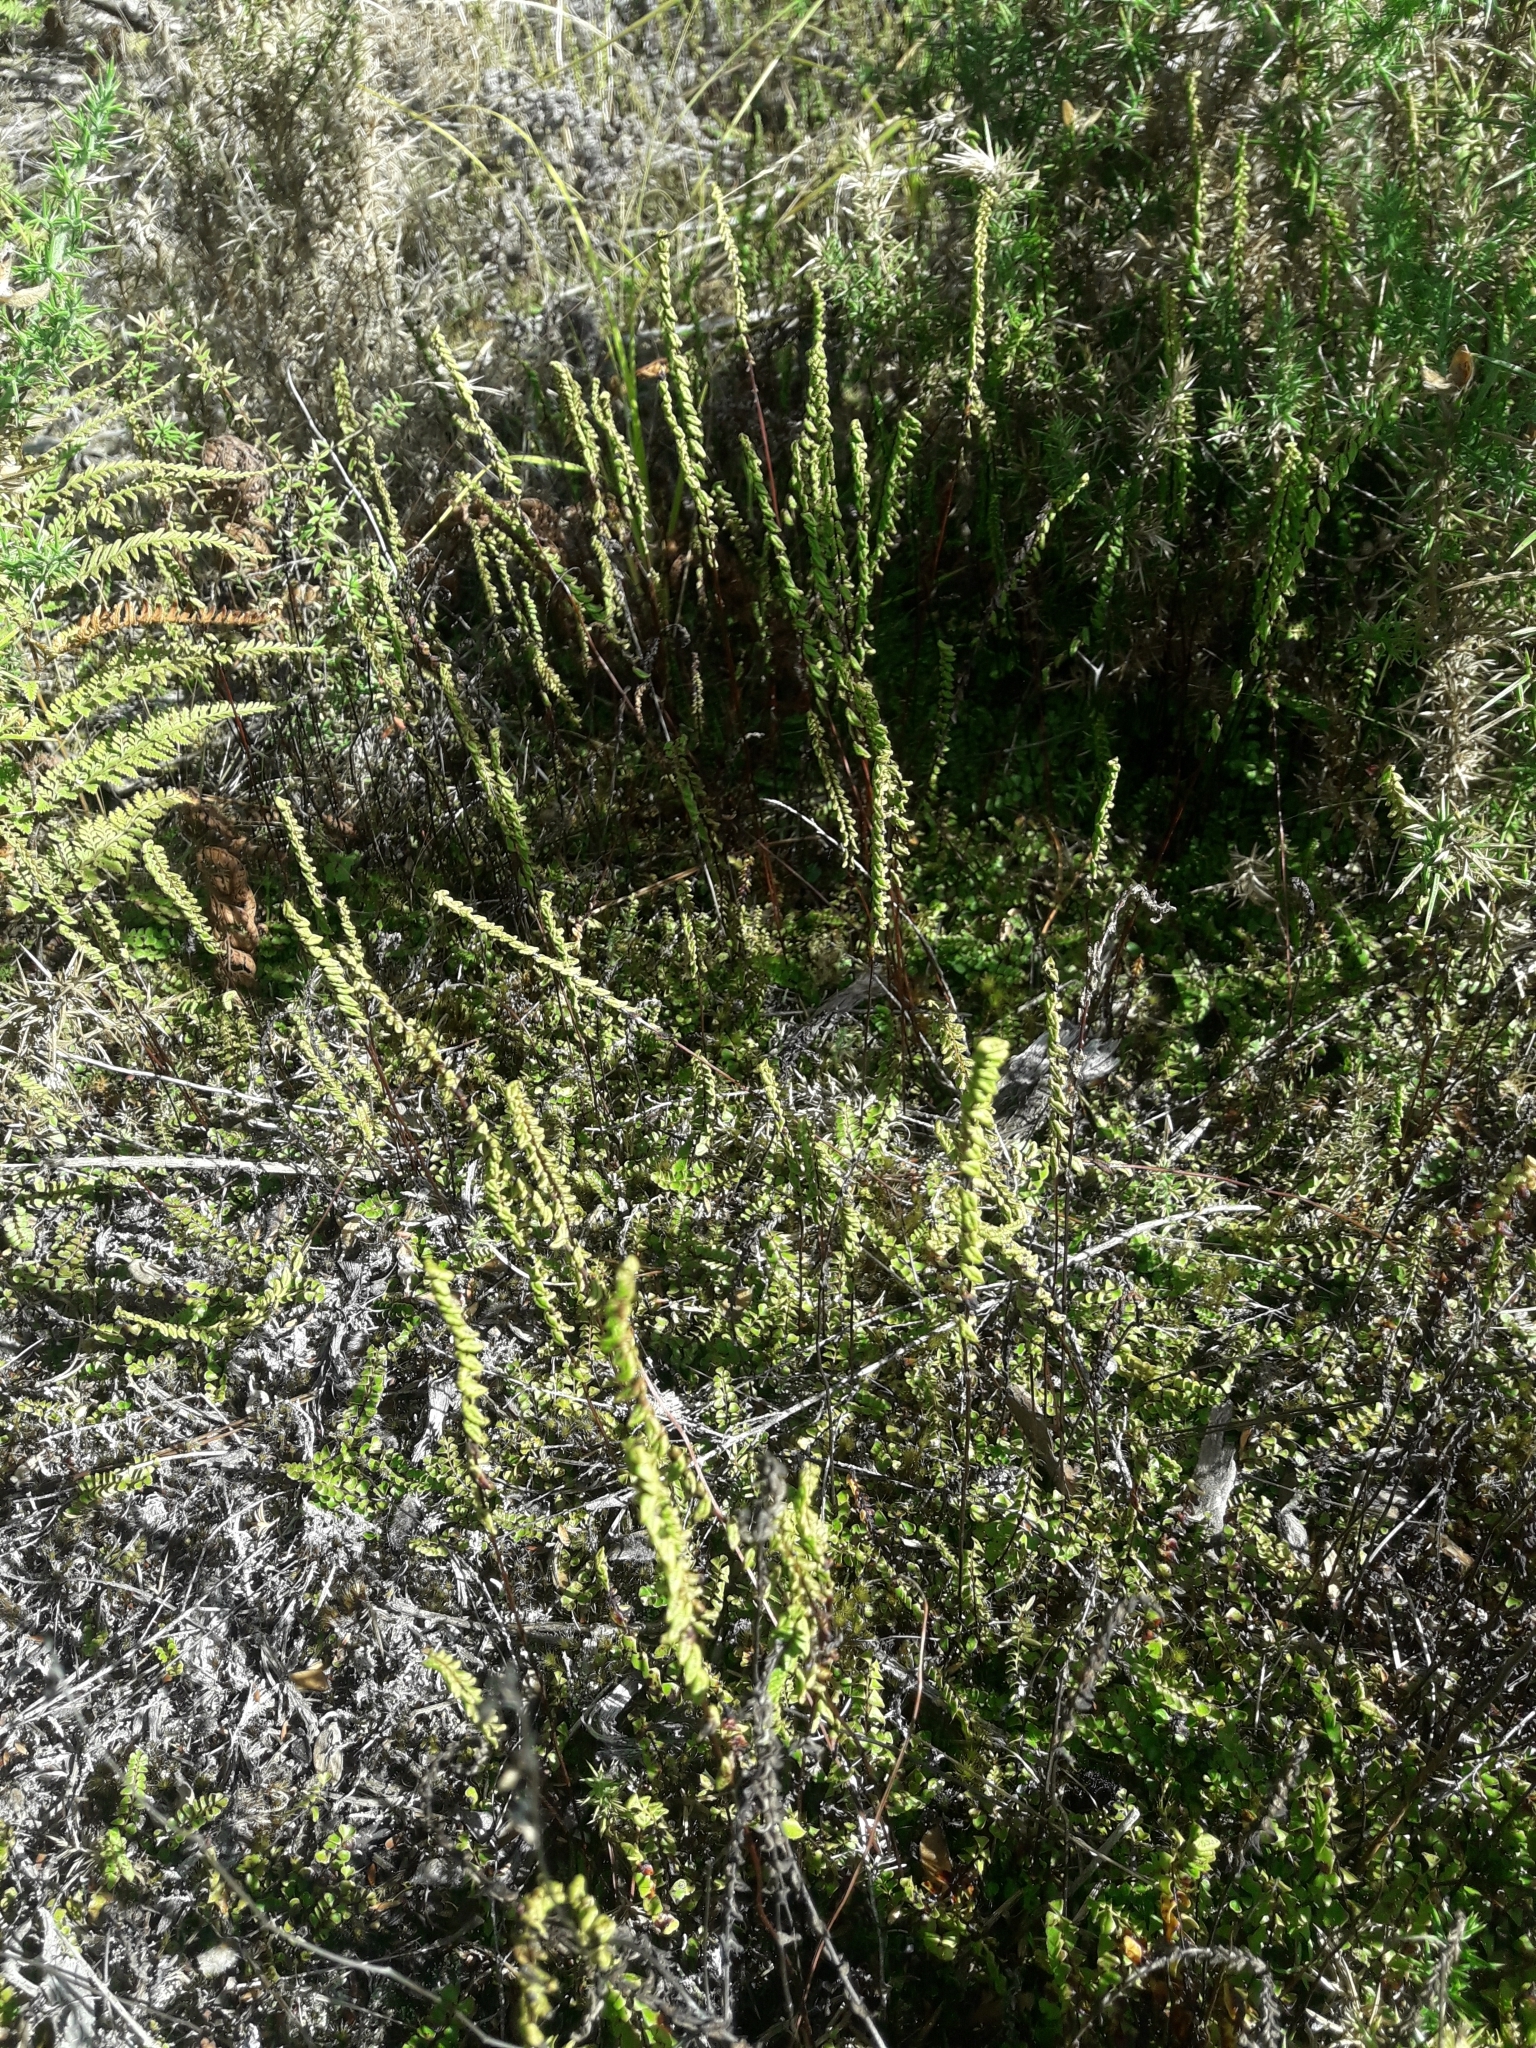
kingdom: Plantae
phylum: Tracheophyta
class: Polypodiopsida
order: Polypodiales
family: Lindsaeaceae
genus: Lindsaea
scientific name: Lindsaea linearis
